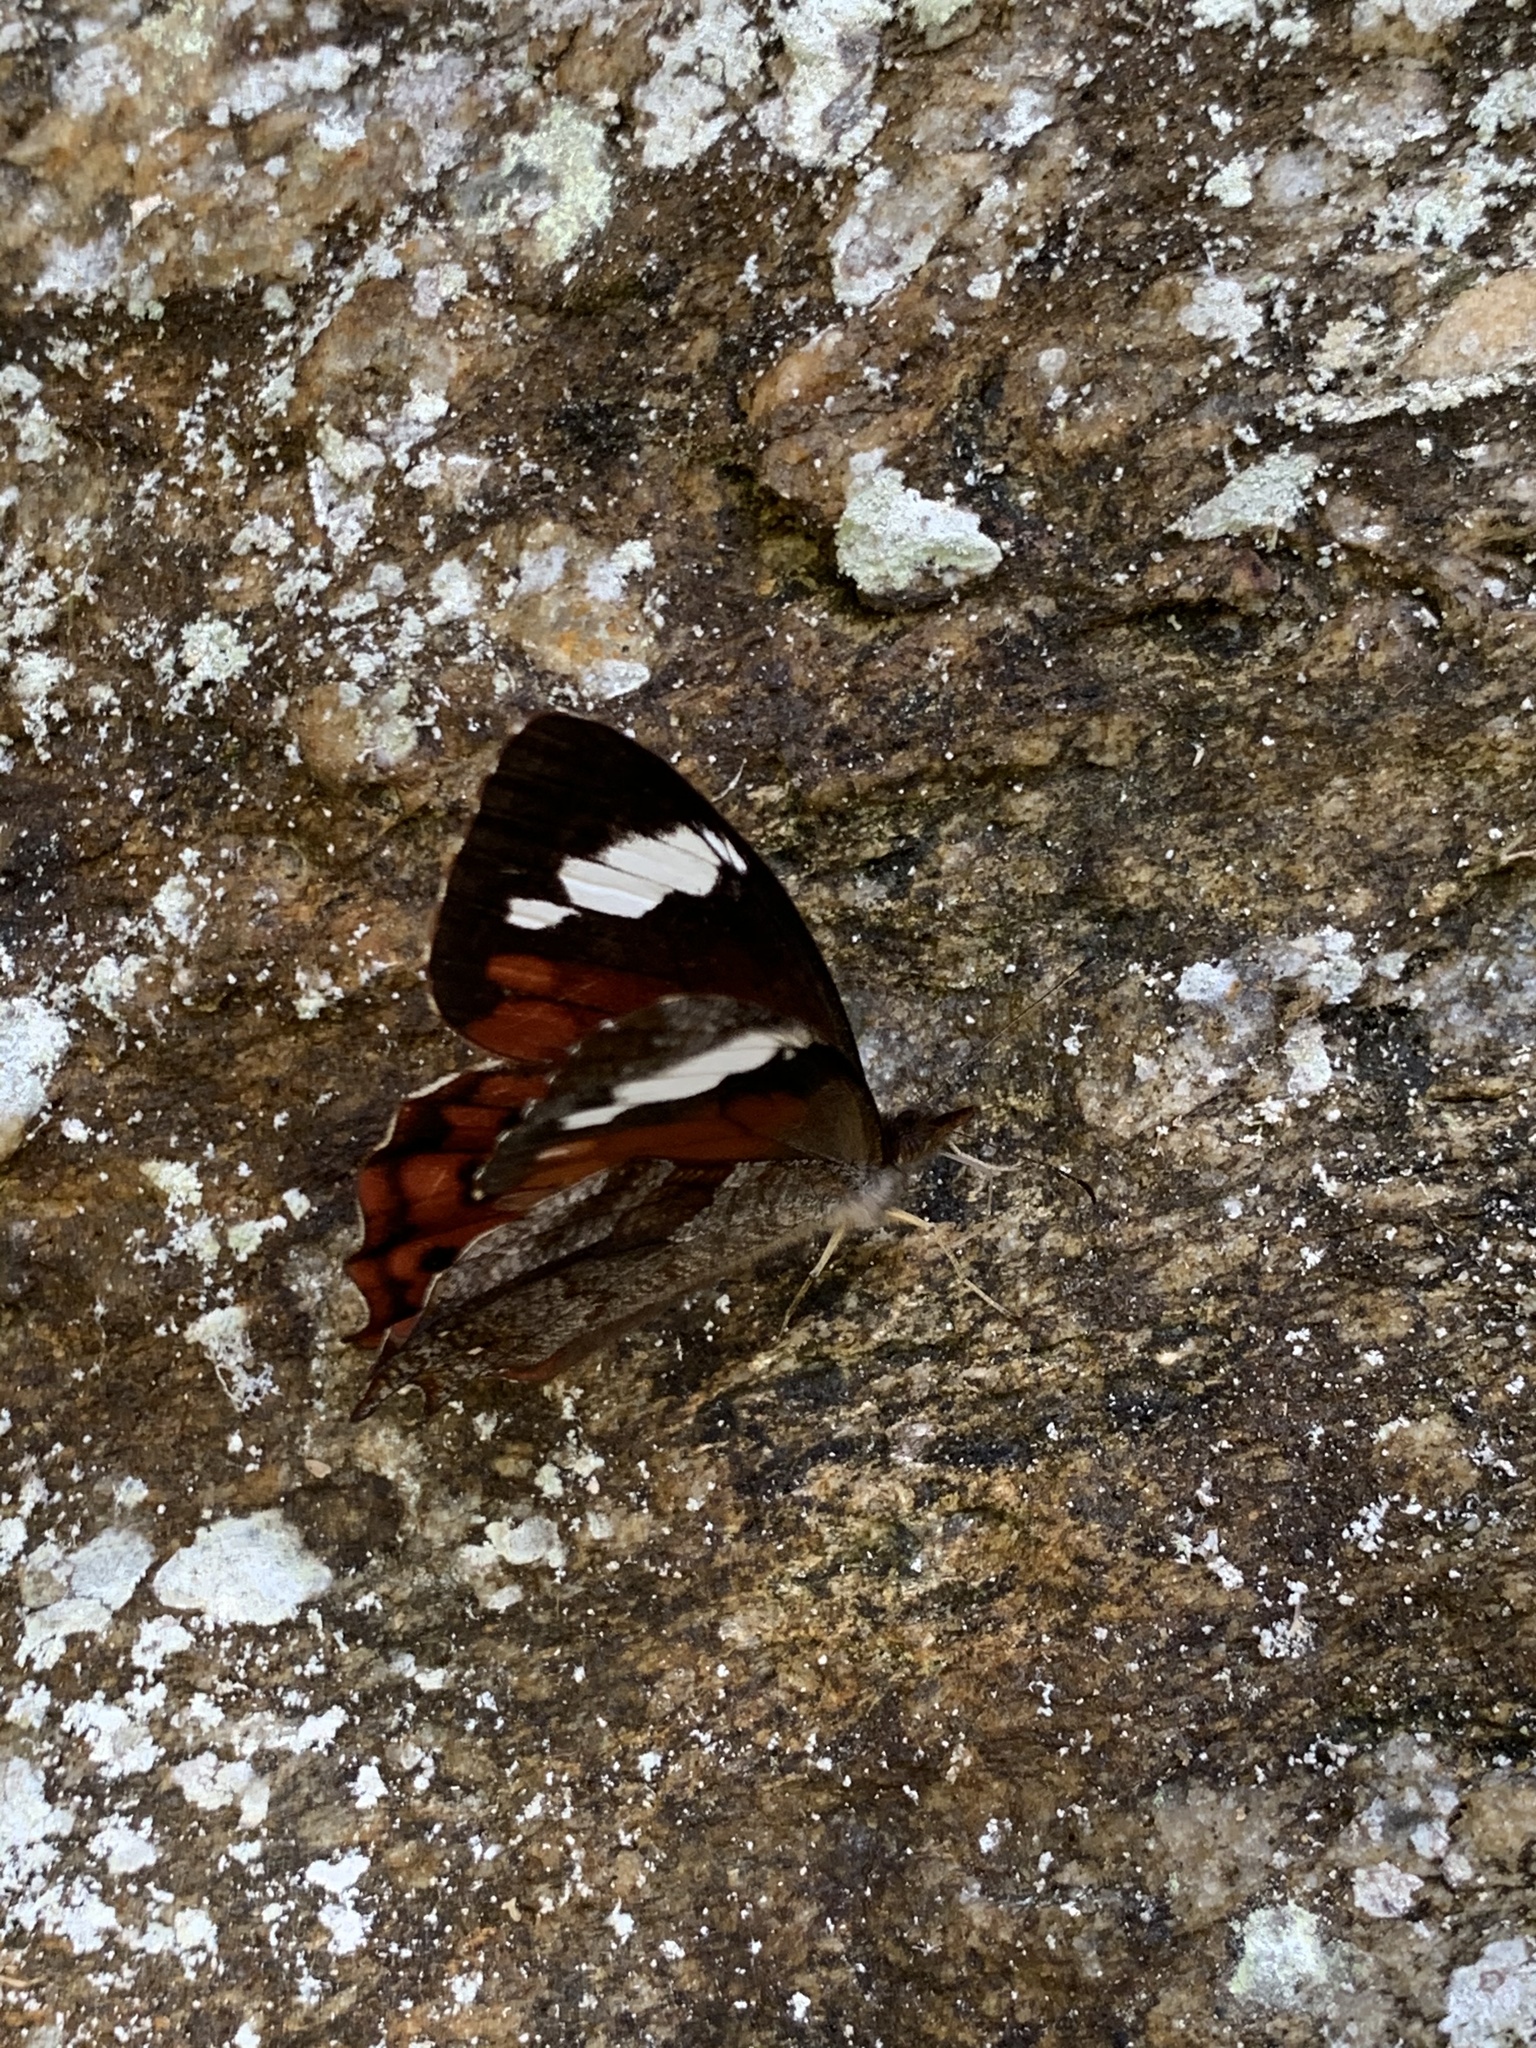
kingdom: Animalia
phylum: Arthropoda
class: Insecta
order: Lepidoptera
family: Nymphalidae
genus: Lasiophila
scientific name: Lasiophila prosymna
